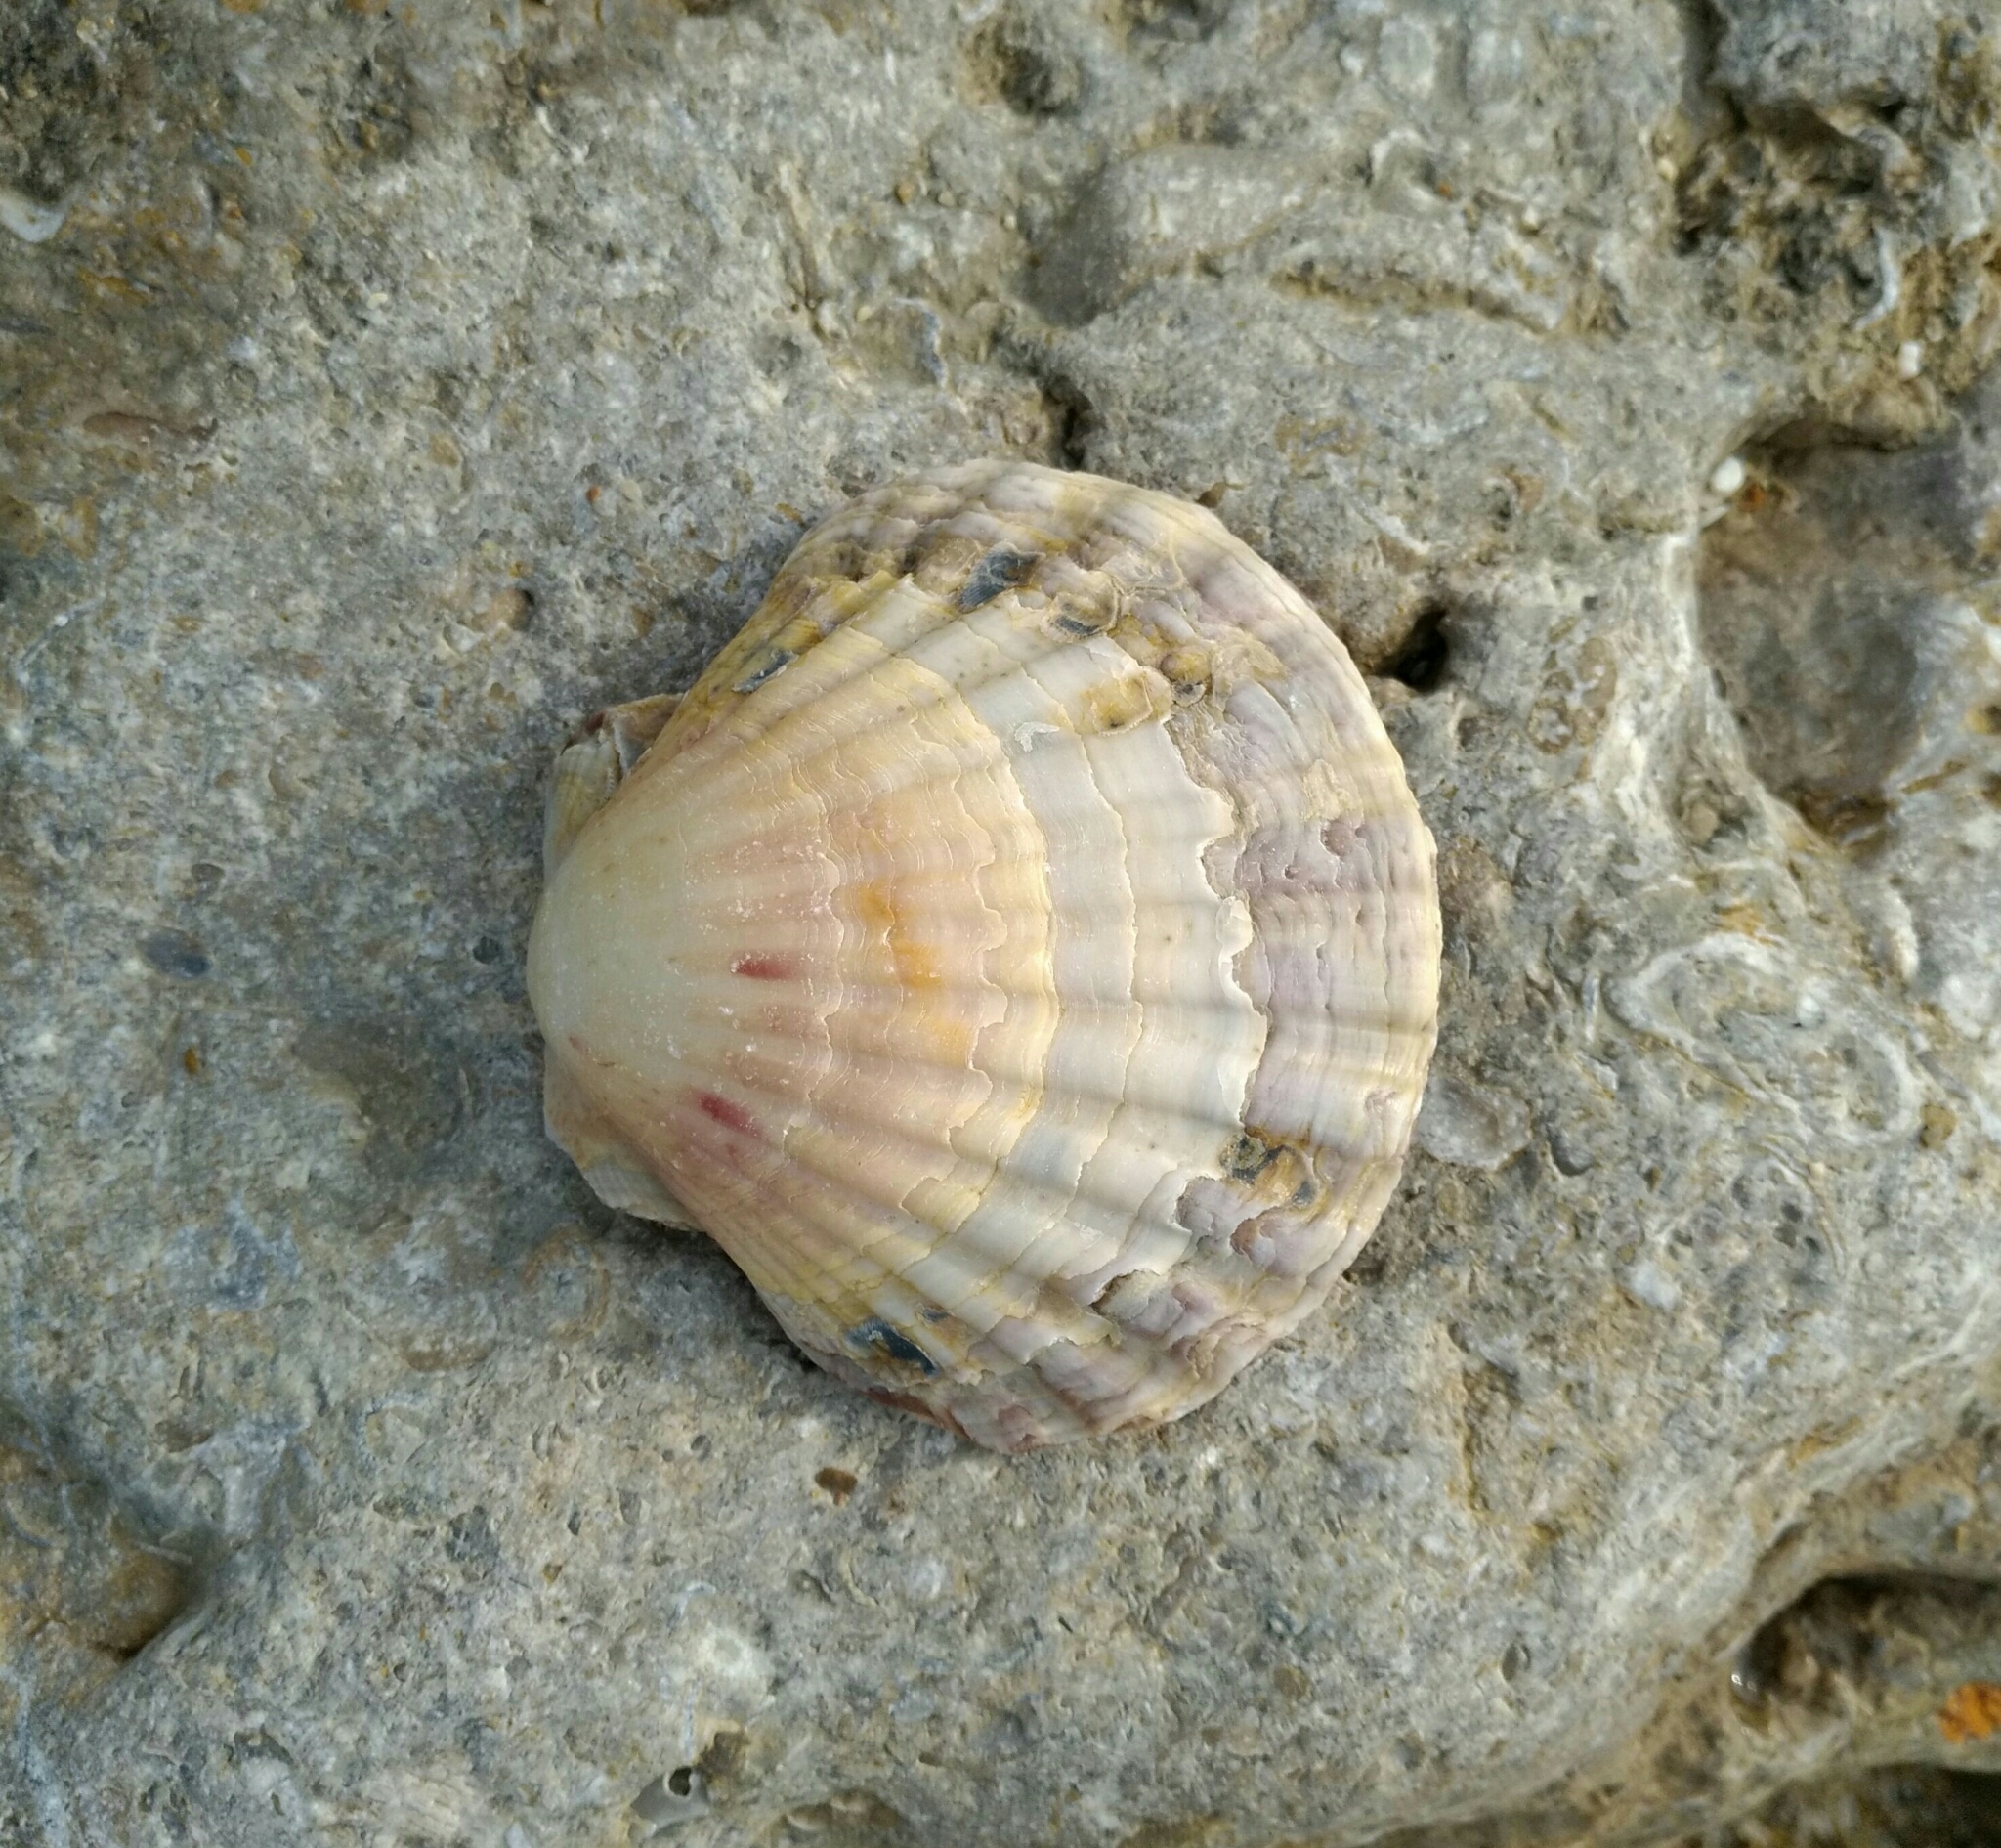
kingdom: Animalia
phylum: Mollusca
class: Bivalvia
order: Pectinida
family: Pectinidae
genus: Pecten
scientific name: Pecten maximus
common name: Great scallop
